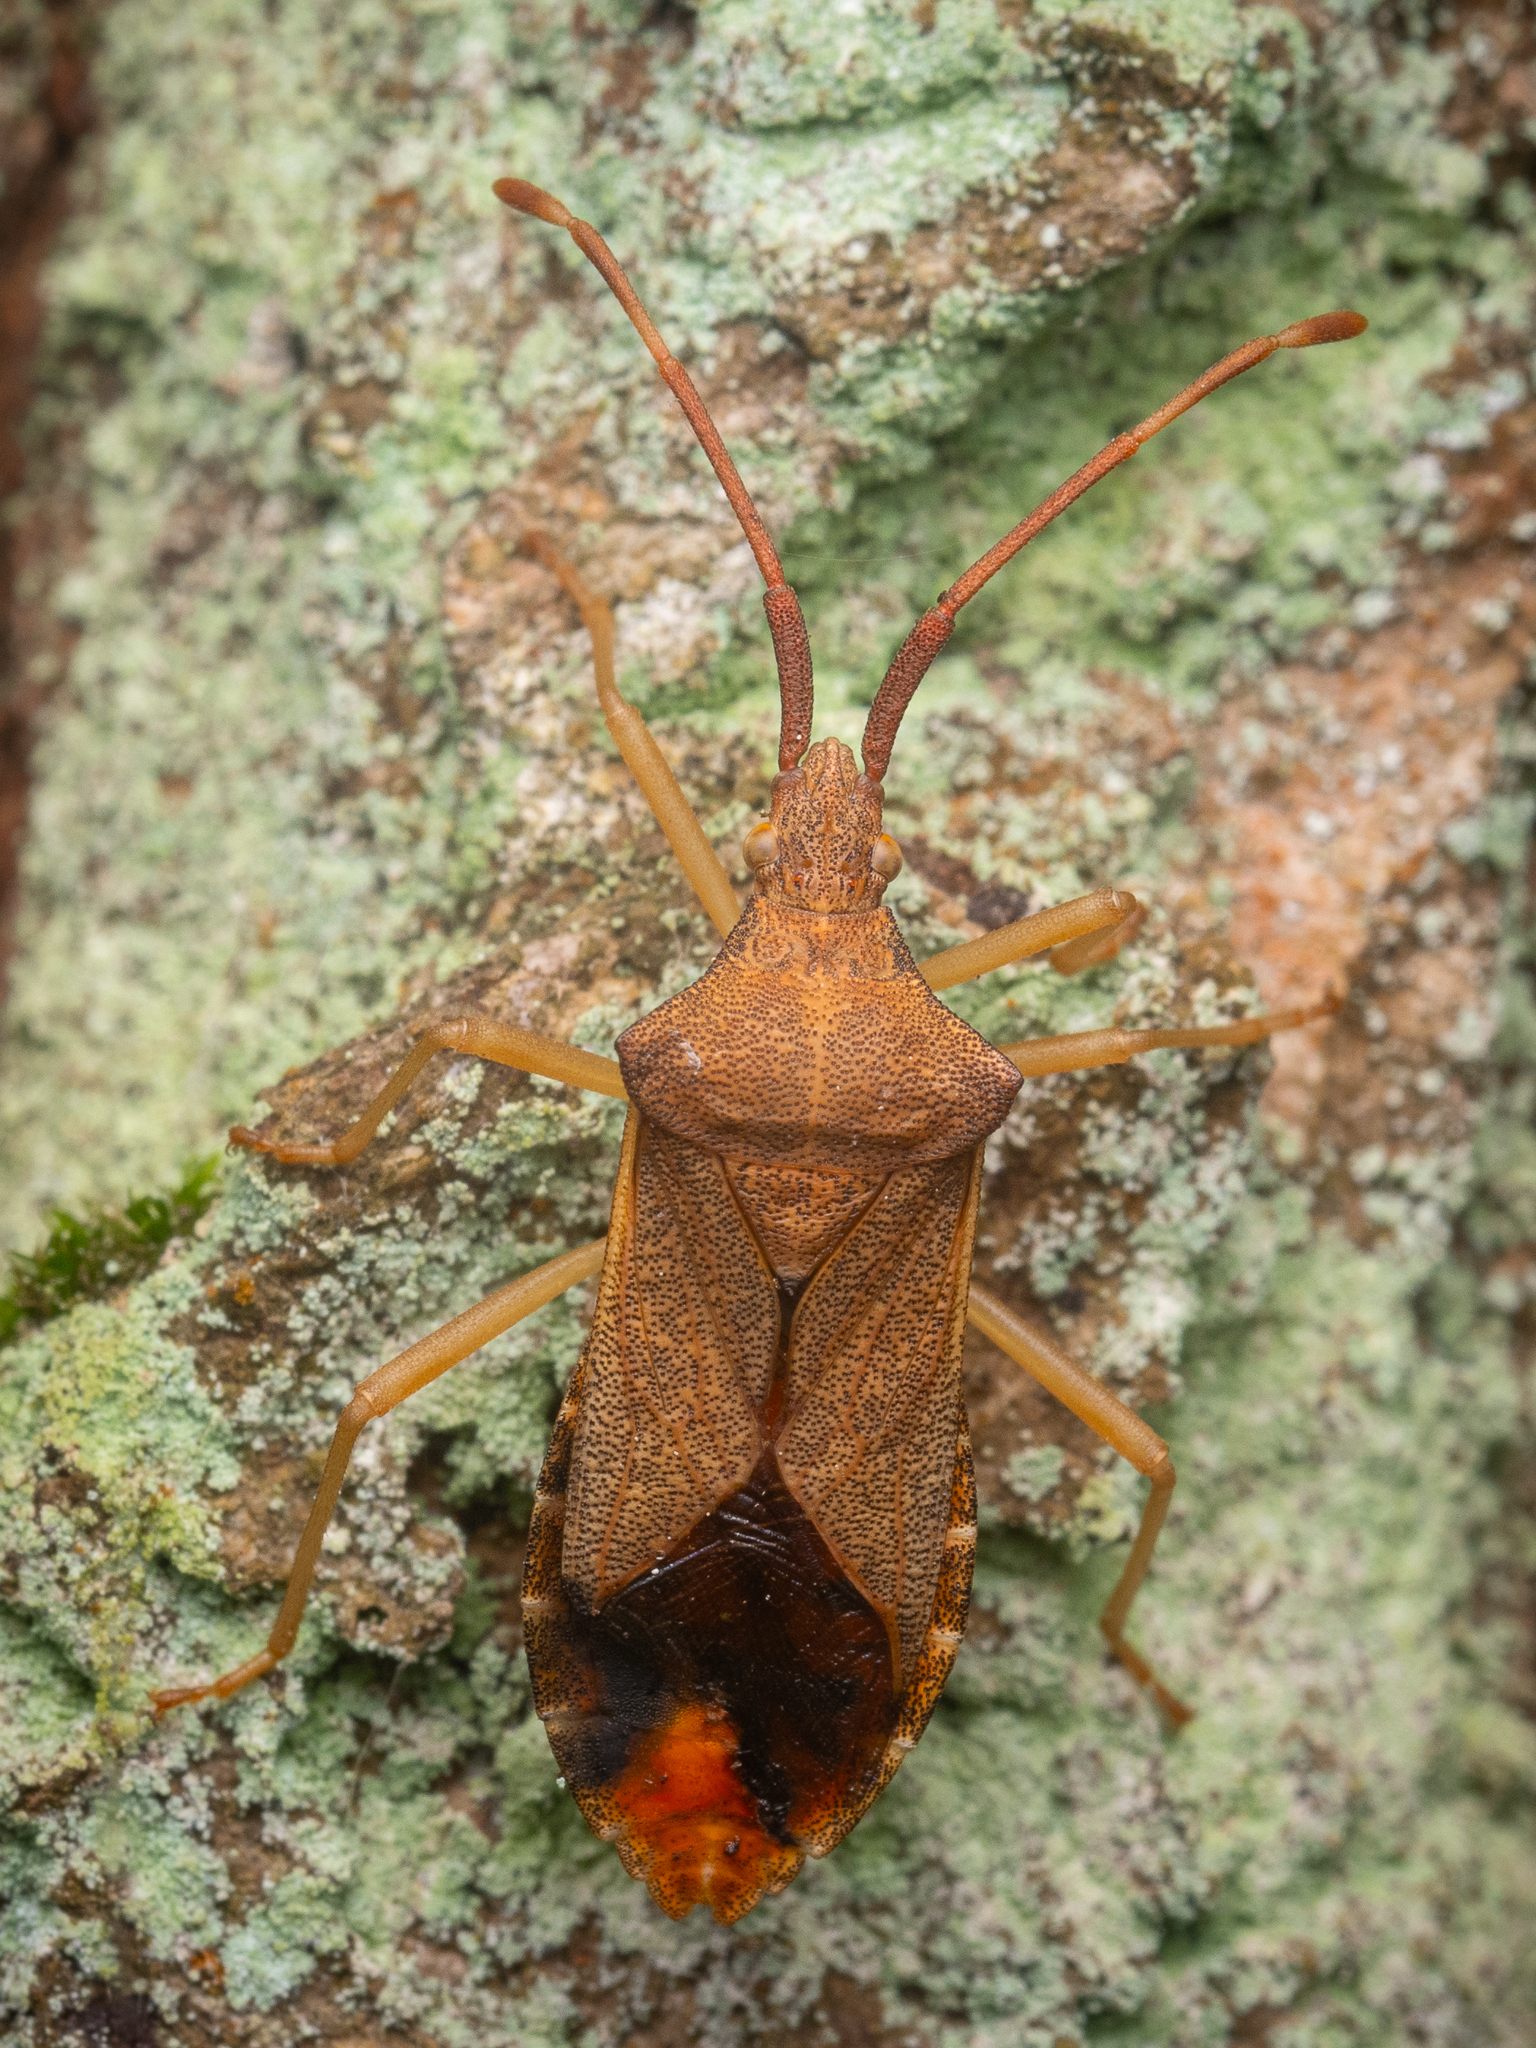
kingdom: Animalia
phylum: Arthropoda
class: Insecta
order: Hemiptera
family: Coreidae
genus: Gonocerus
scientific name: Gonocerus acuteangulatus
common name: Box bug
